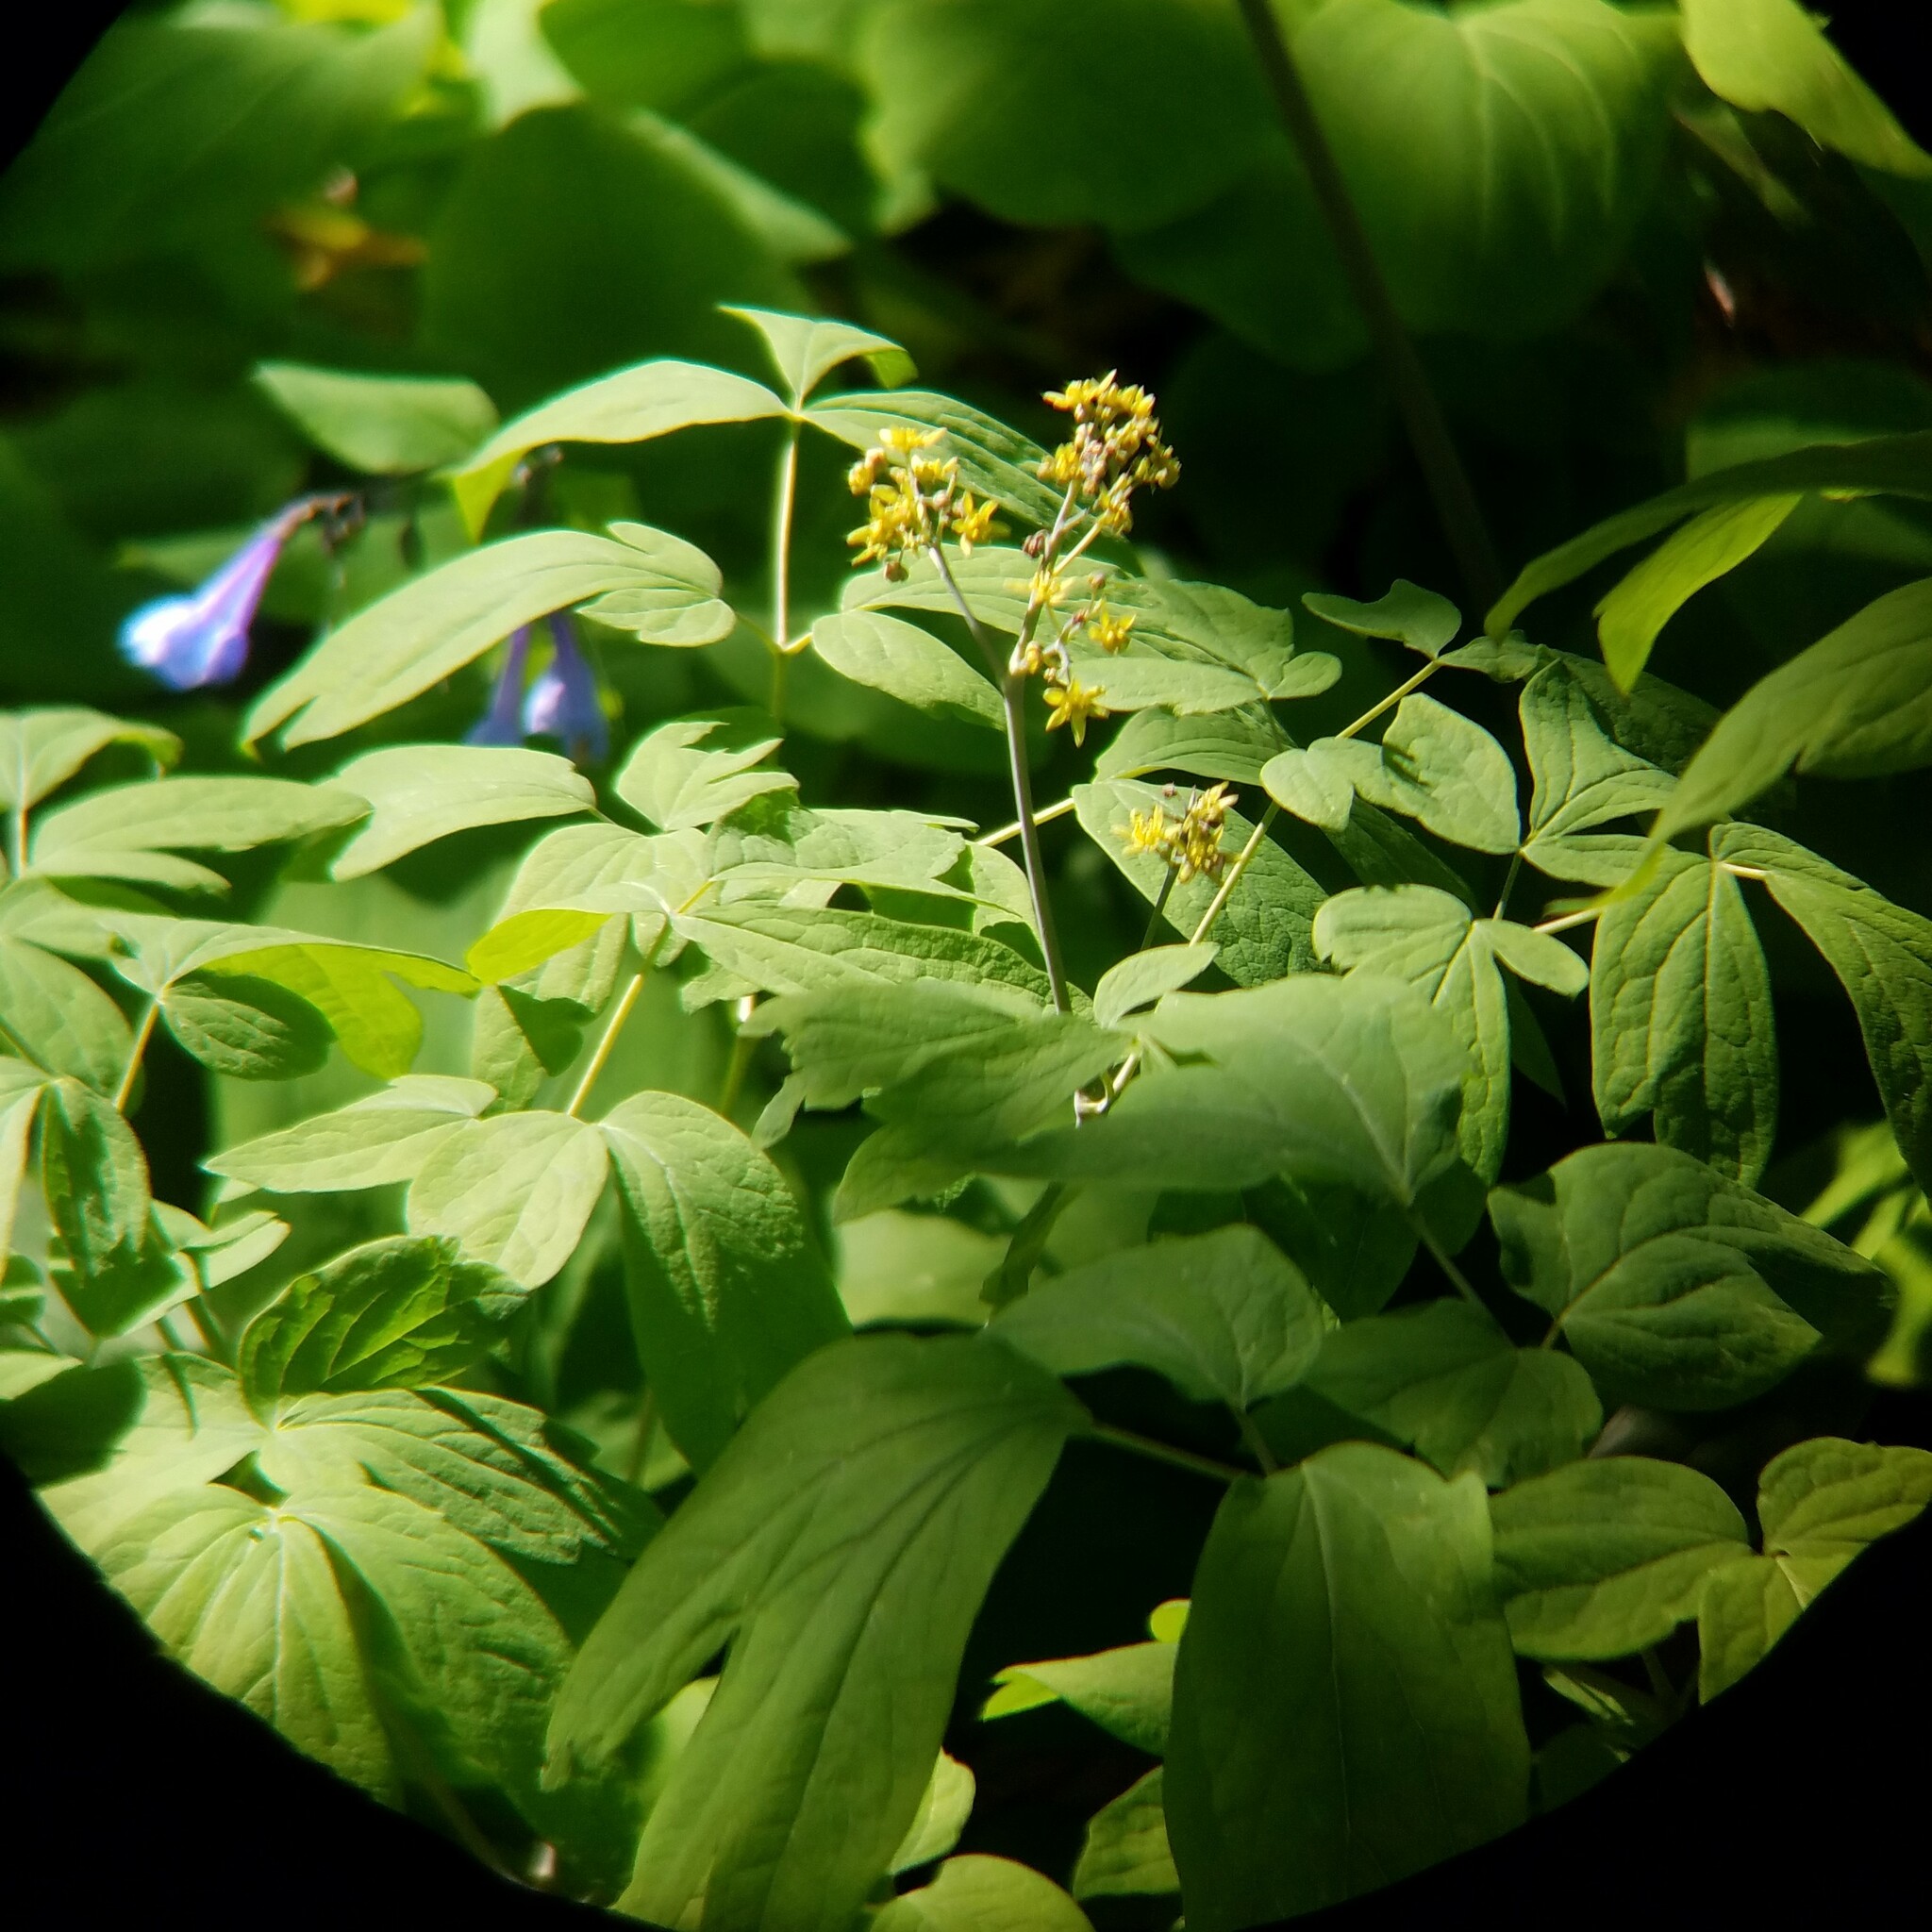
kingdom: Plantae
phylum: Tracheophyta
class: Magnoliopsida
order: Ranunculales
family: Berberidaceae
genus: Caulophyllum
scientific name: Caulophyllum thalictroides
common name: Blue cohosh
